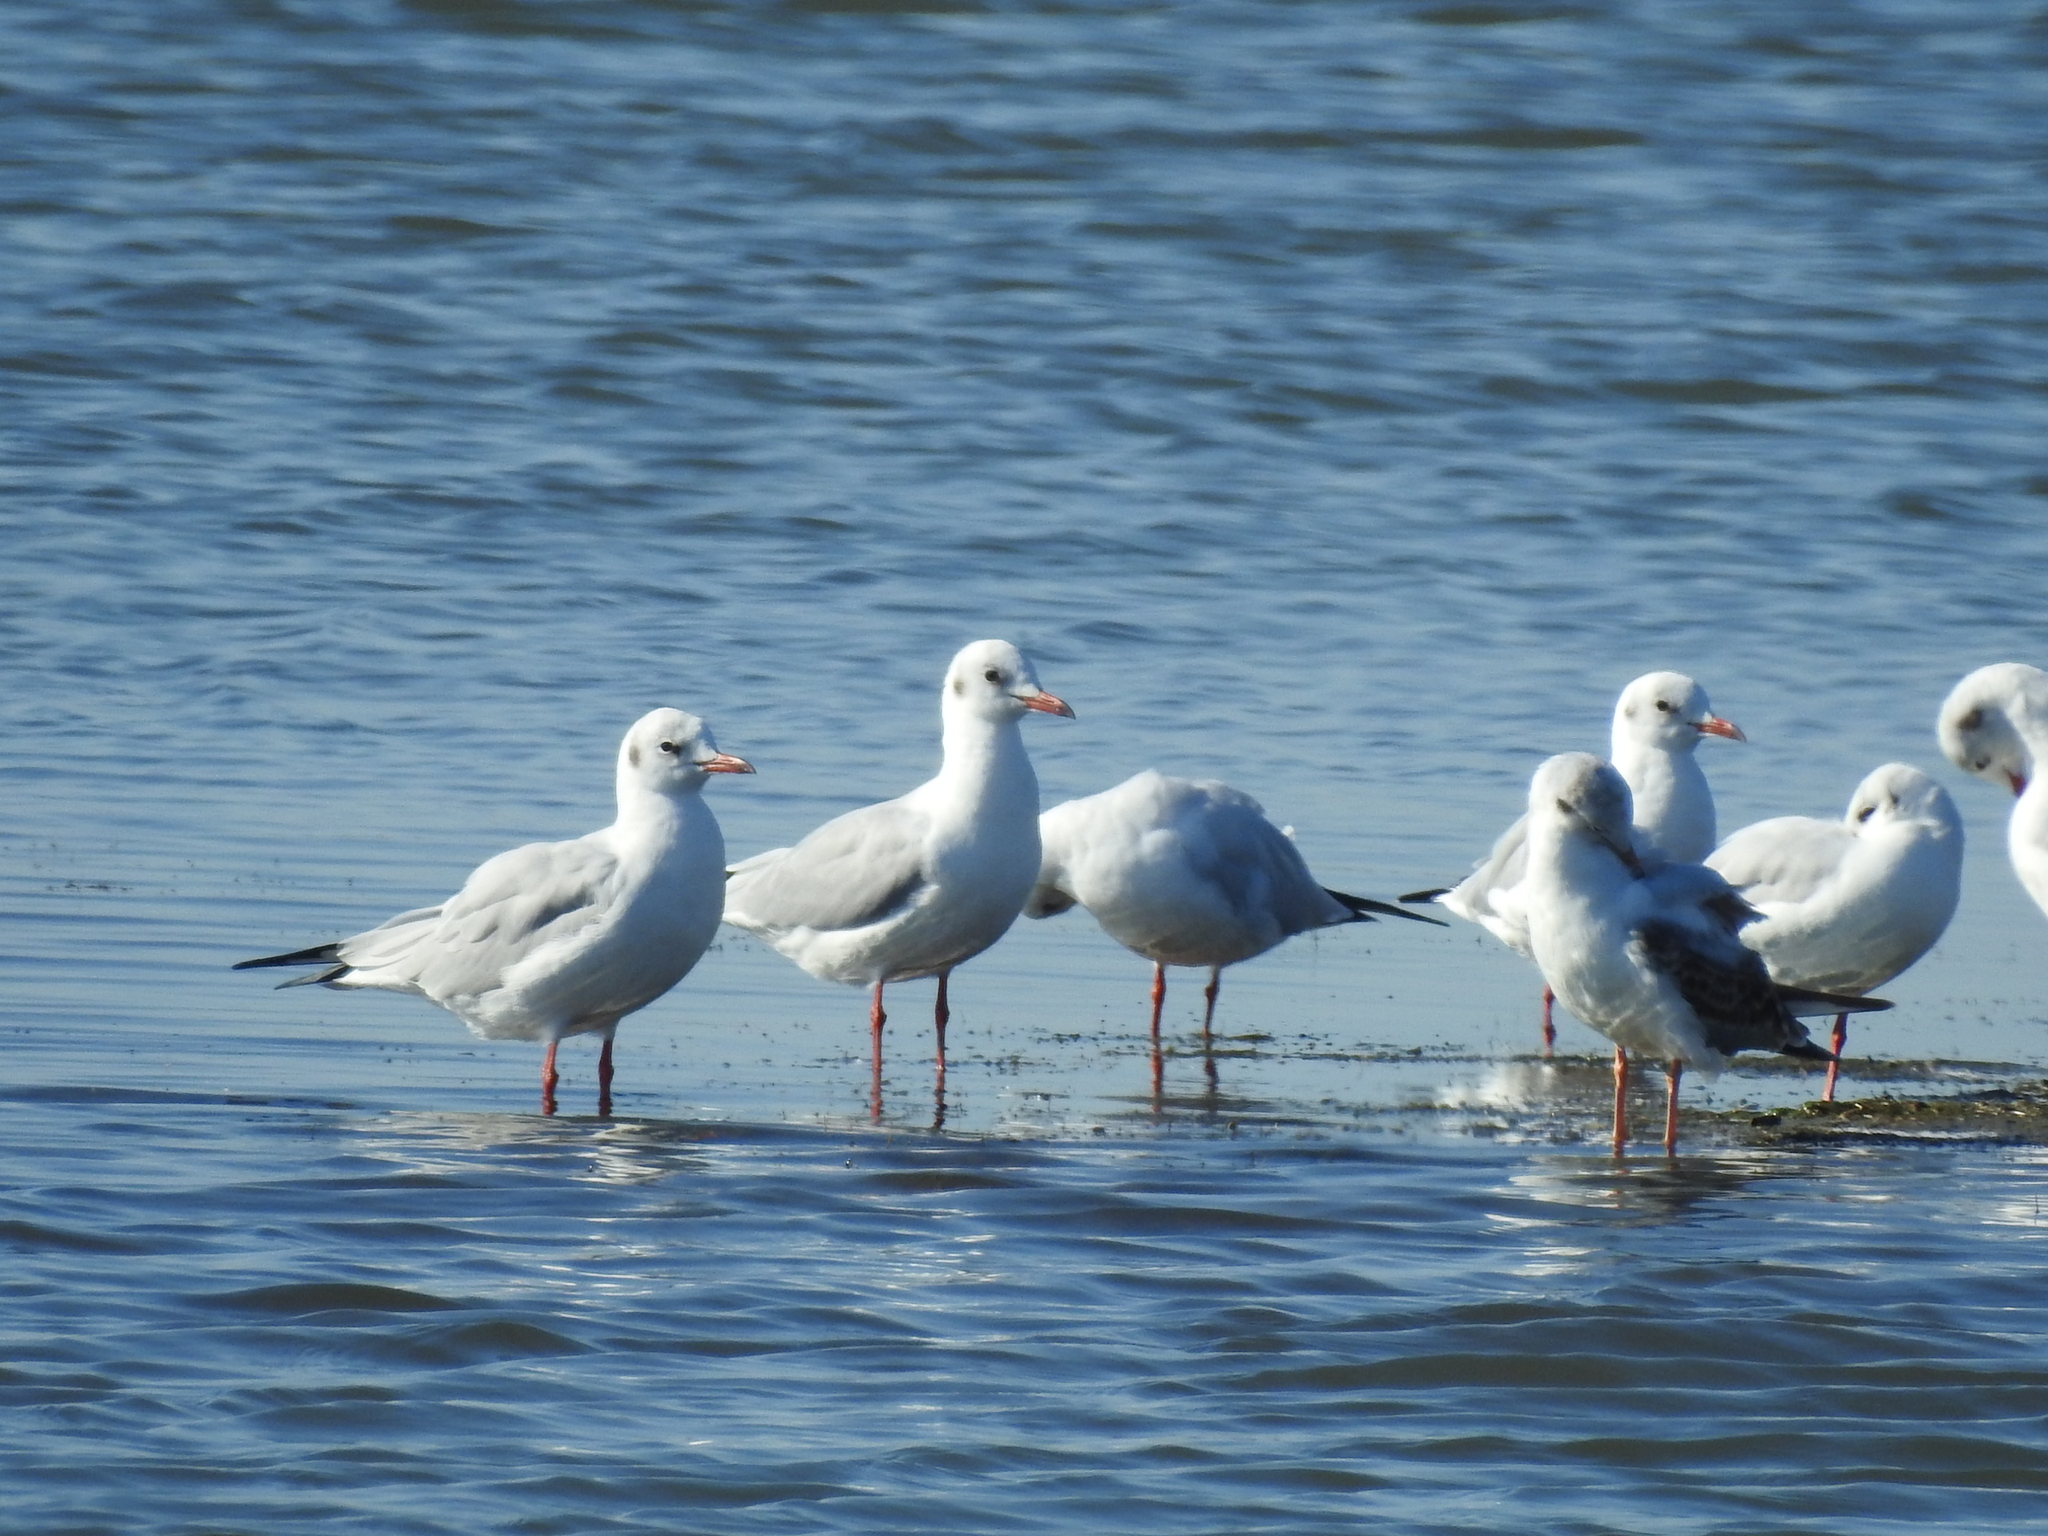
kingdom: Animalia
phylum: Chordata
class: Aves
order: Charadriiformes
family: Laridae
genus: Chroicocephalus
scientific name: Chroicocephalus ridibundus
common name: Black-headed gull
